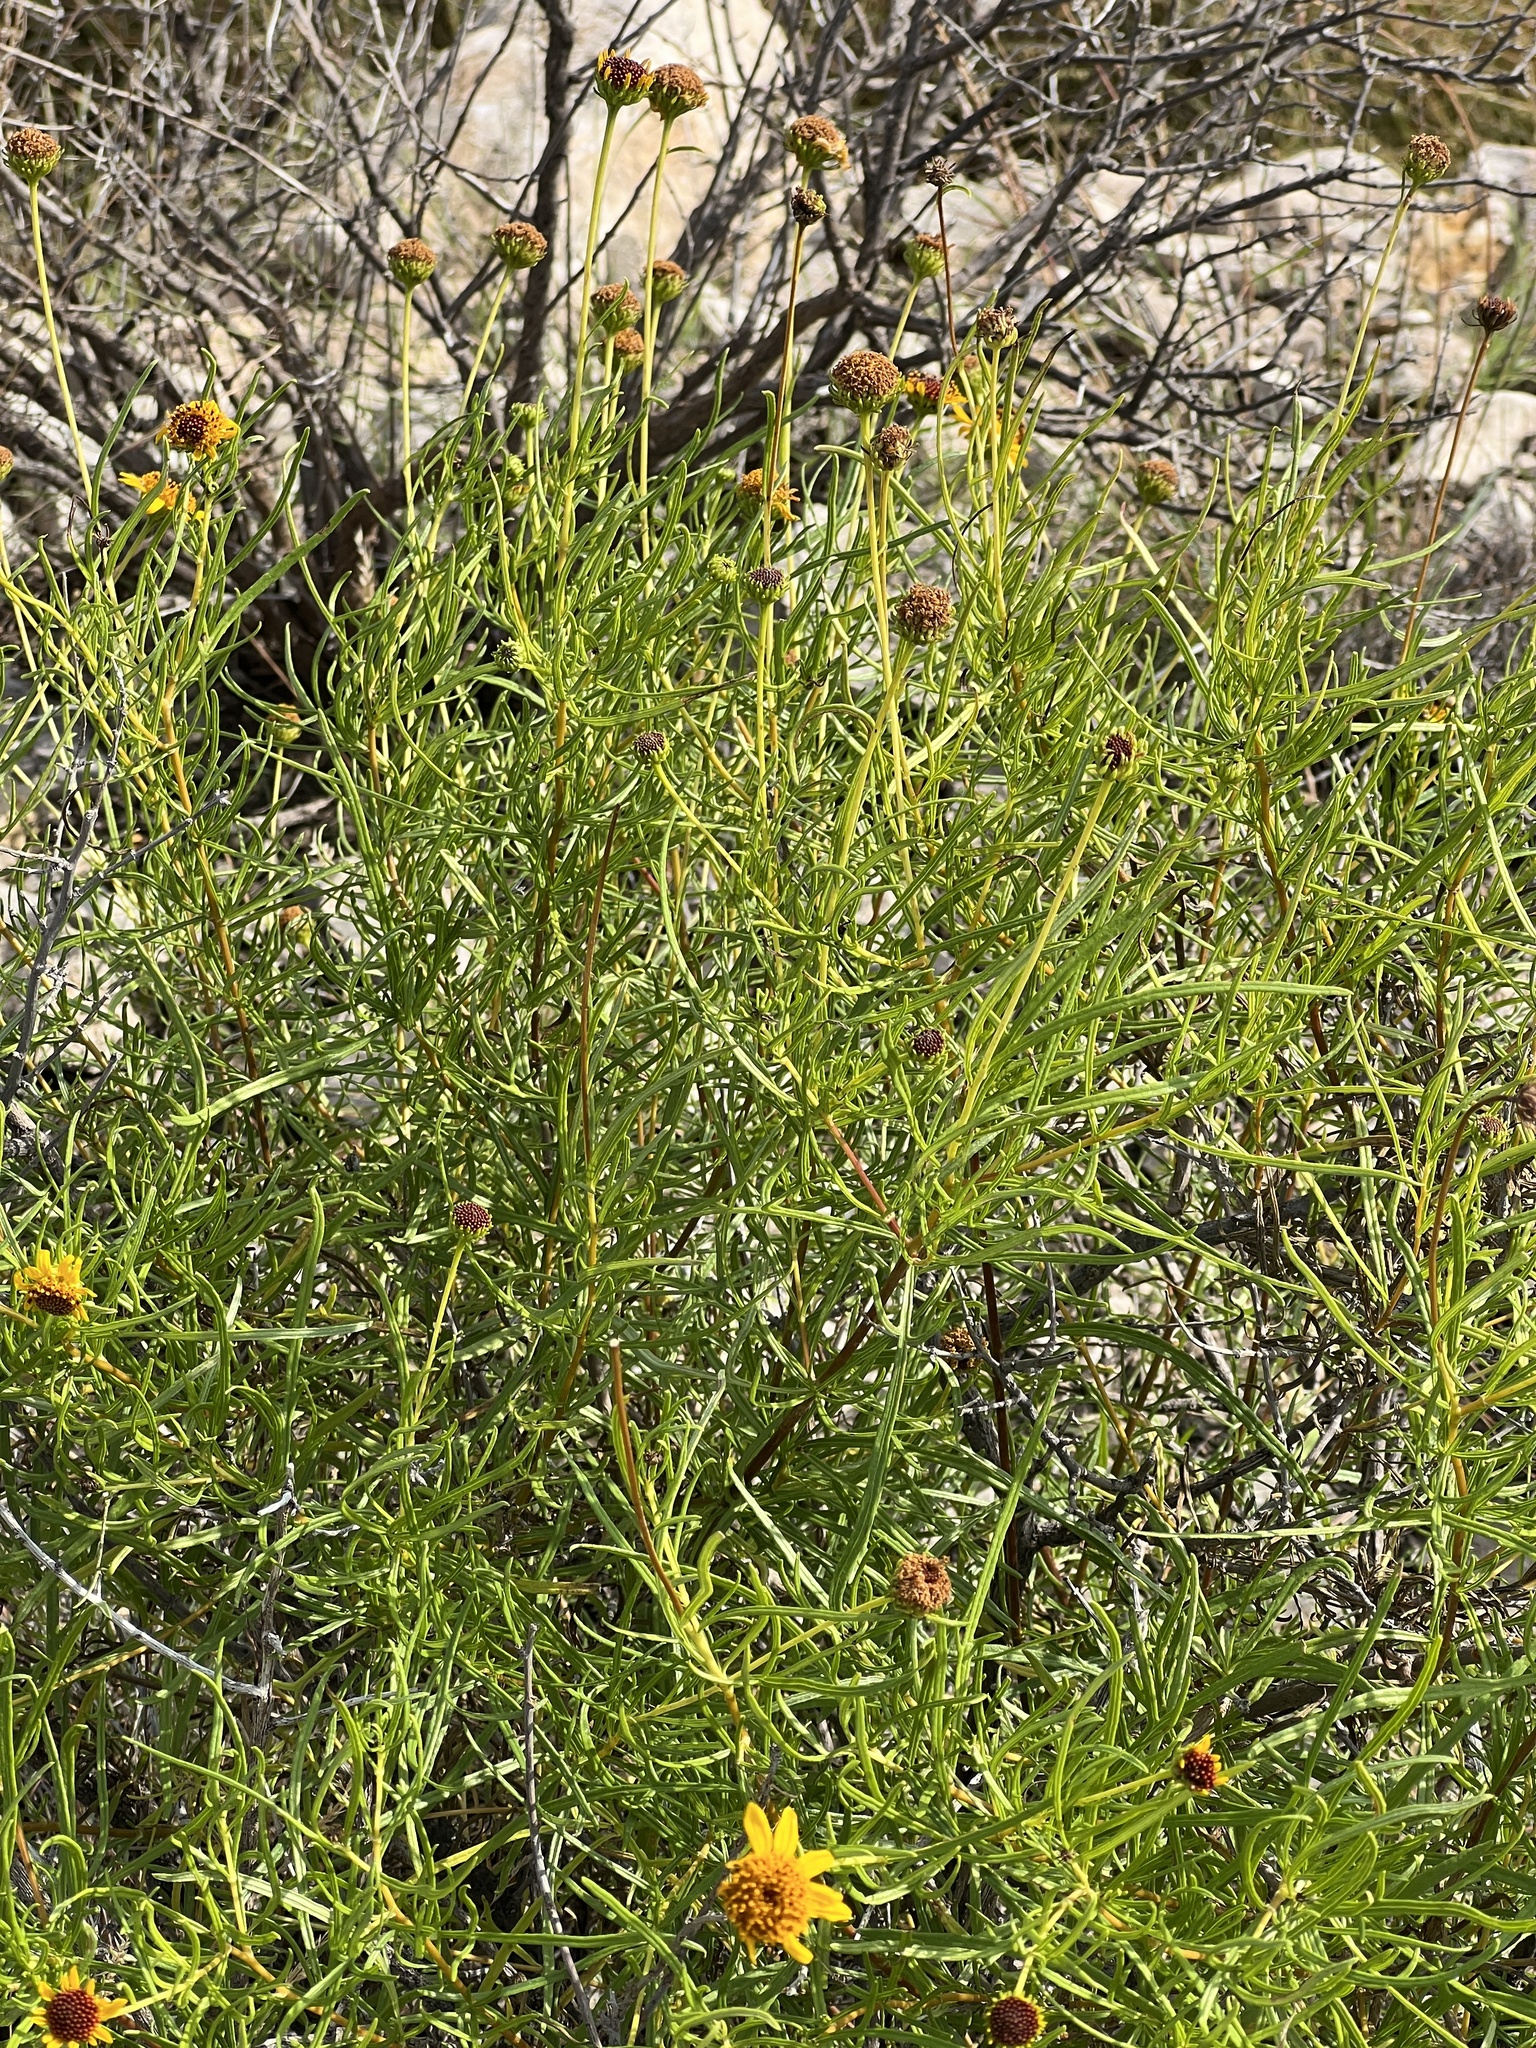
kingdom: Plantae
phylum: Tracheophyta
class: Magnoliopsida
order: Asterales
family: Asteraceae
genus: Sidneya
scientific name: Sidneya tenuifolia
